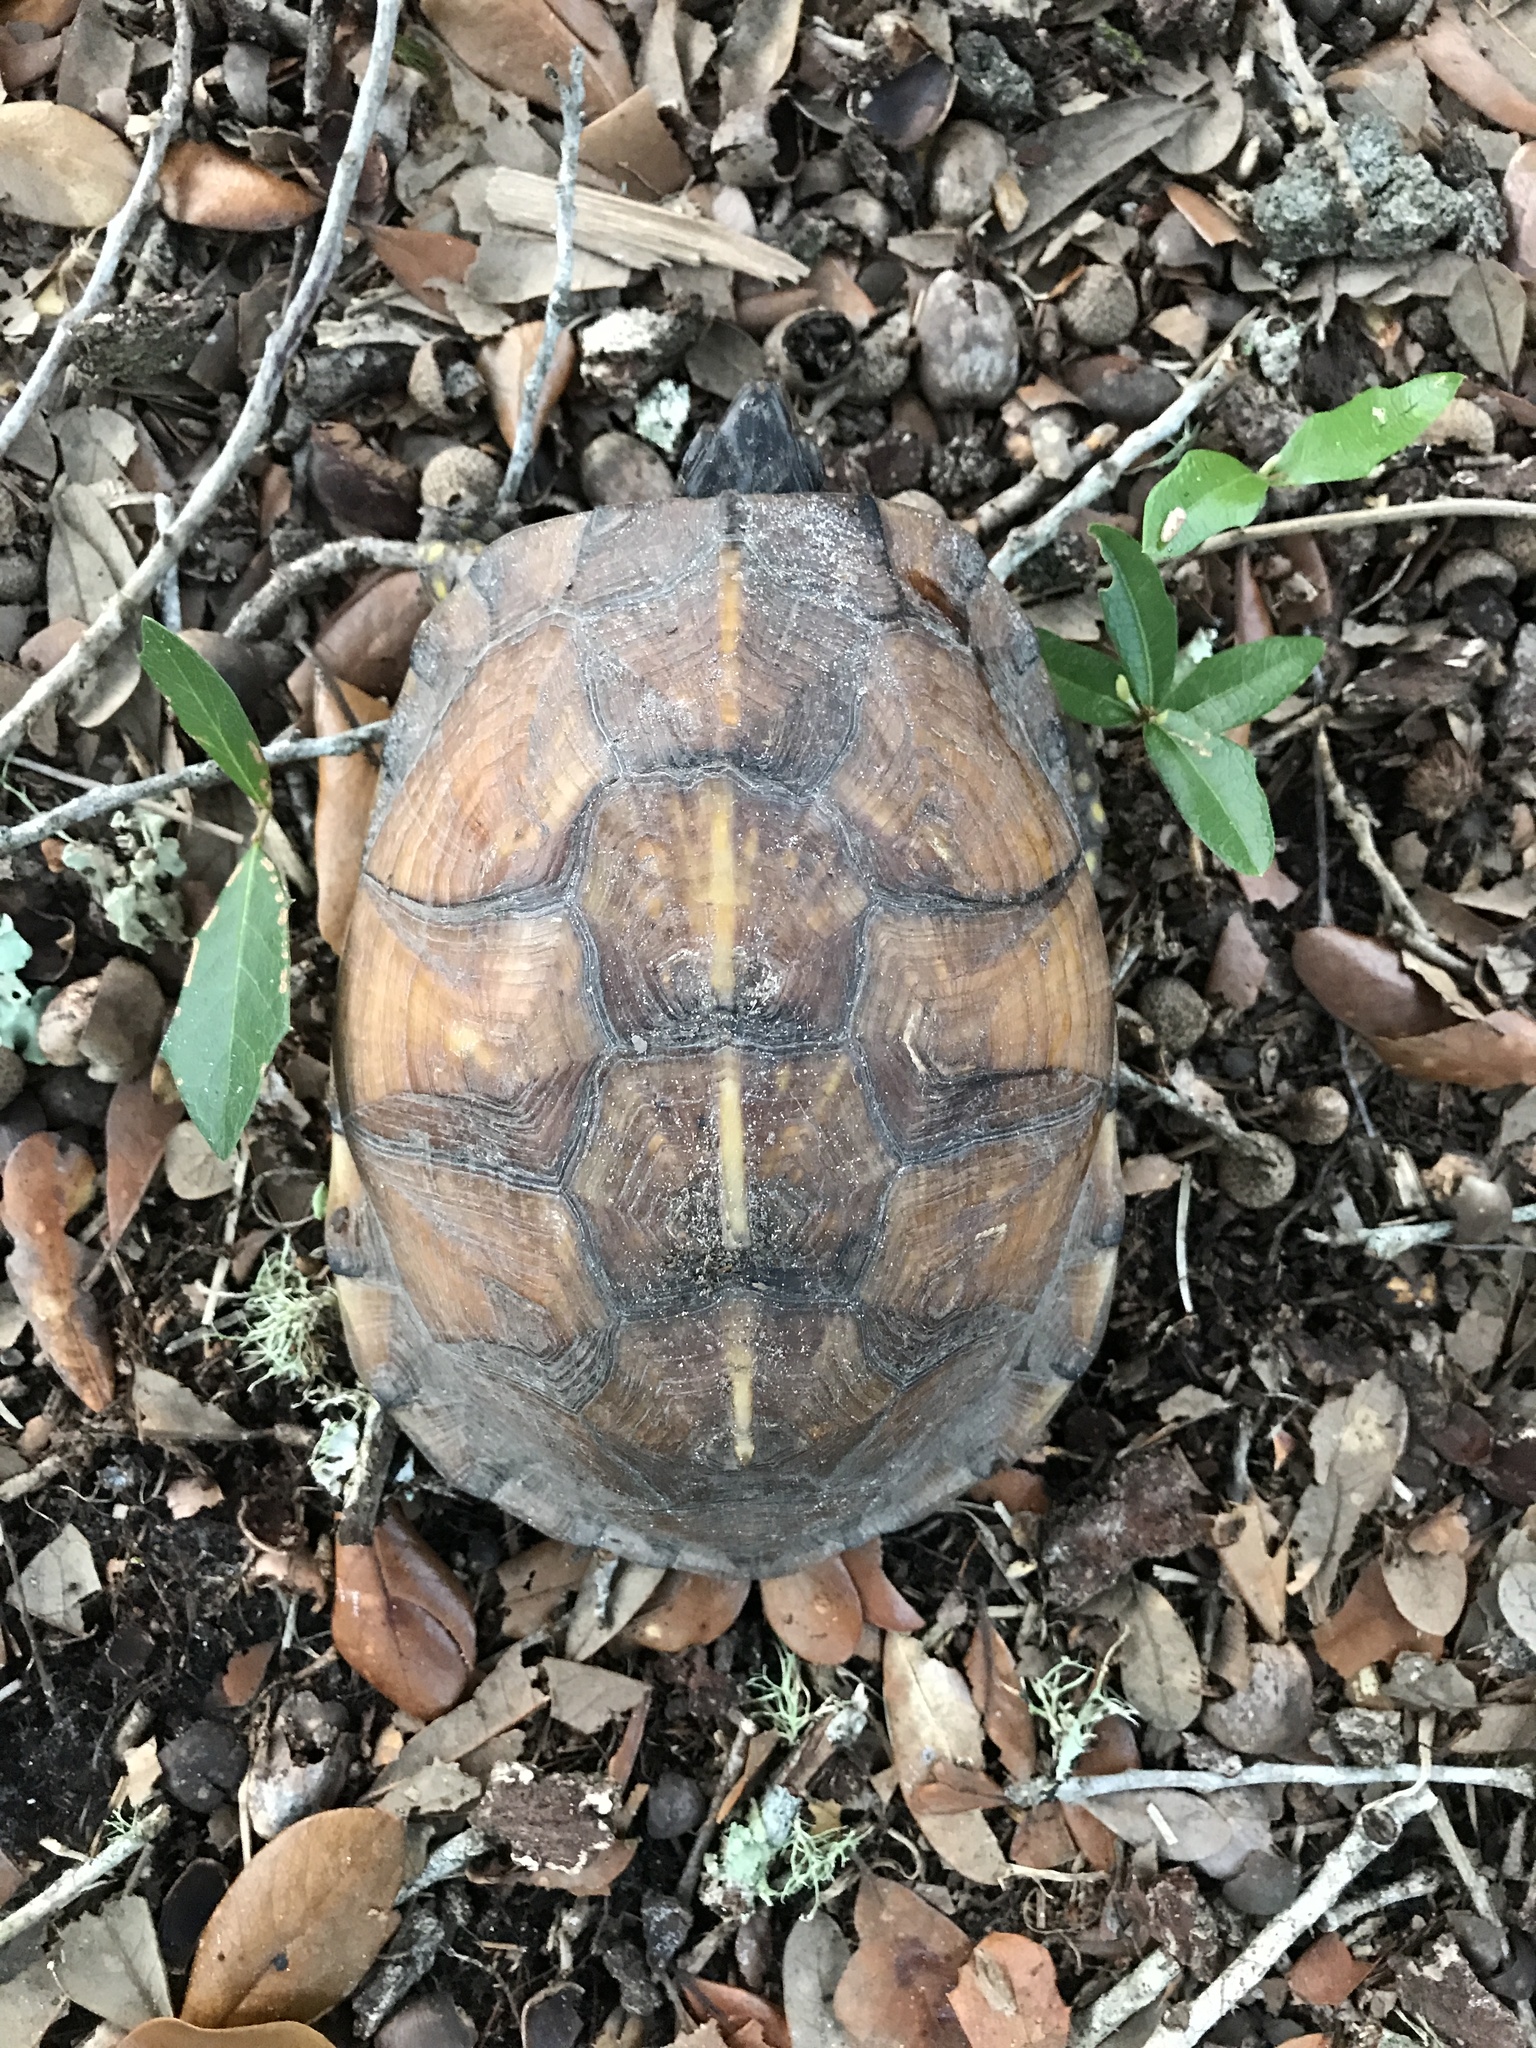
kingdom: Animalia
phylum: Chordata
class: Testudines
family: Emydidae
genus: Terrapene
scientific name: Terrapene carolina
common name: Common box turtle
